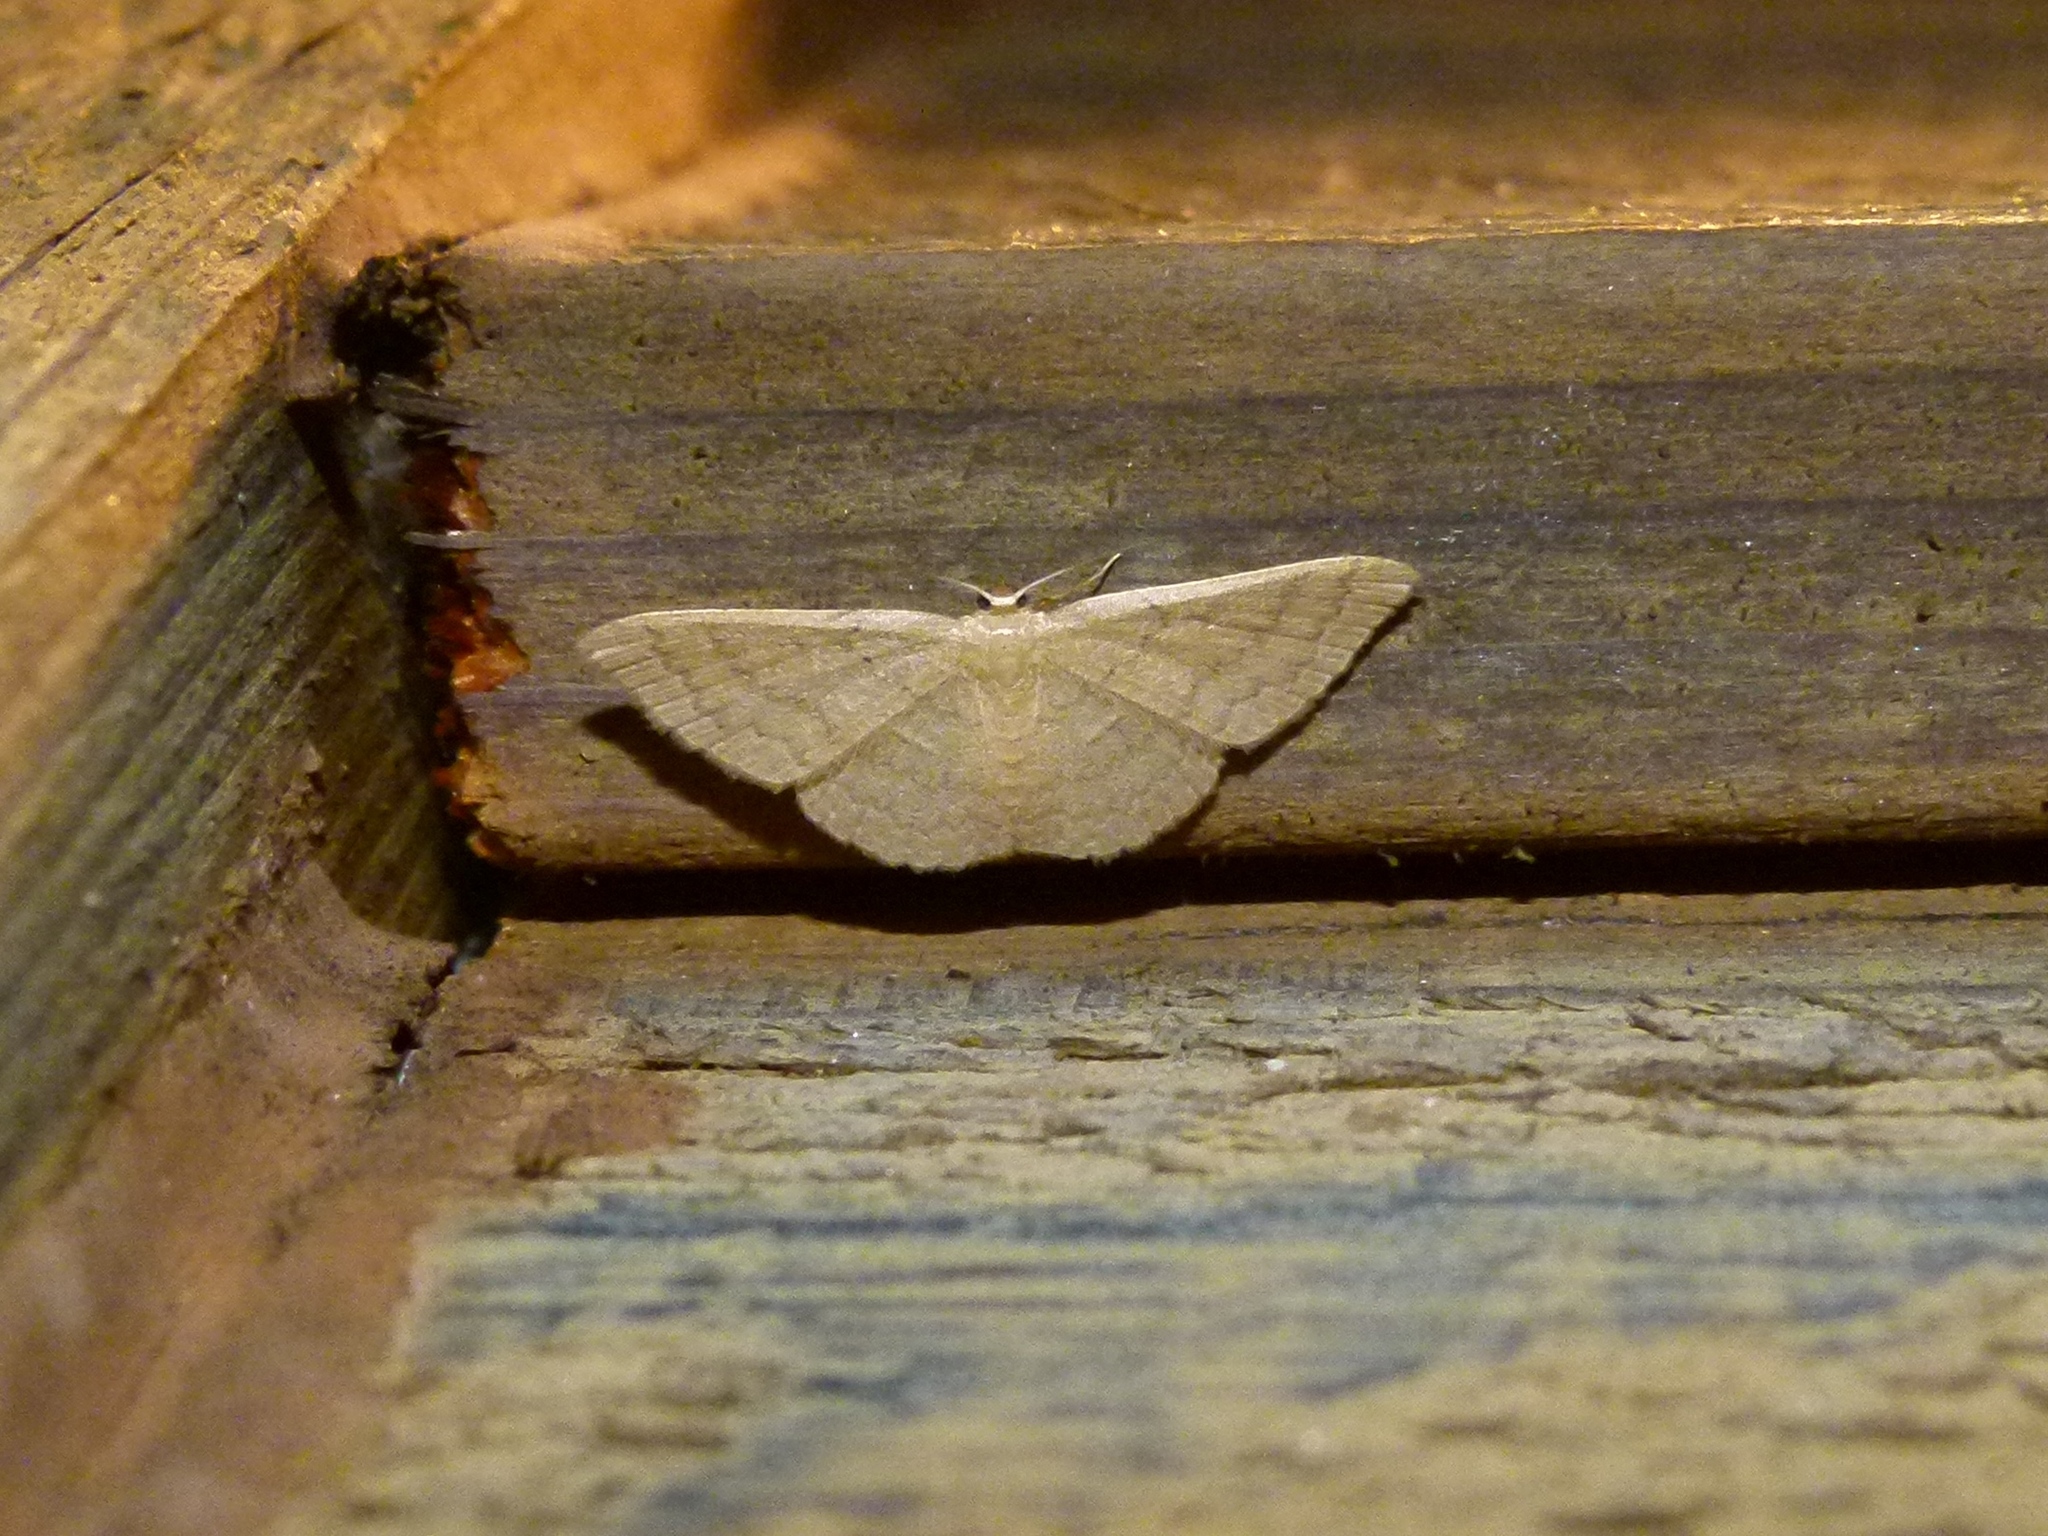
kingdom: Animalia
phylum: Arthropoda
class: Insecta
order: Lepidoptera
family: Geometridae
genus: Pleuroprucha
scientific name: Pleuroprucha insulsaria
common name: Common tan wave
